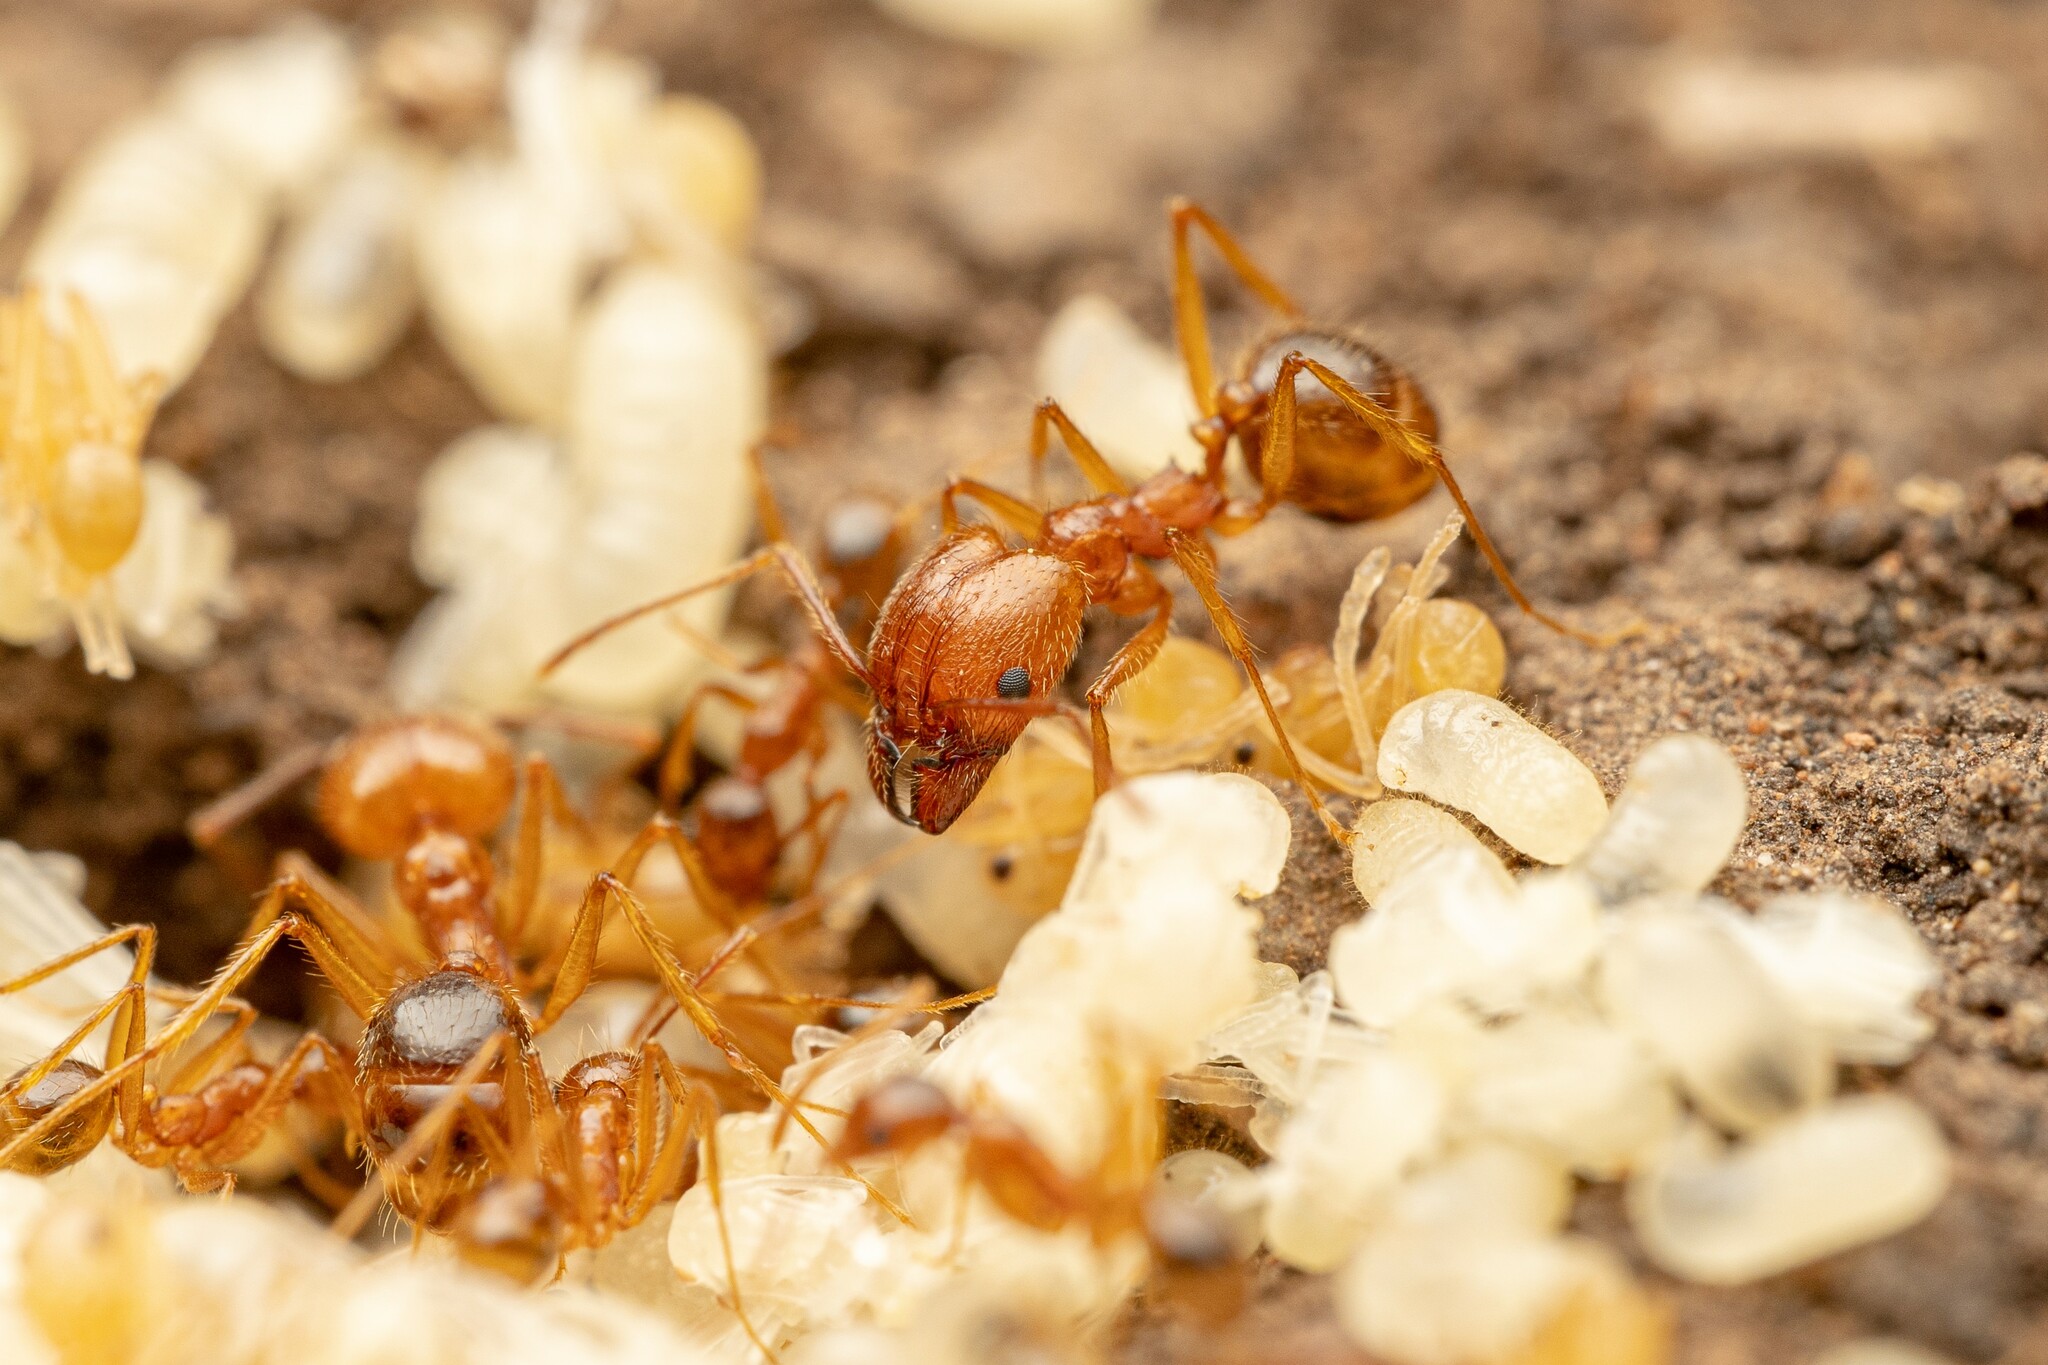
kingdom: Animalia
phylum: Arthropoda
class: Insecta
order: Hymenoptera
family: Formicidae
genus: Pheidole
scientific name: Pheidole desertorum
